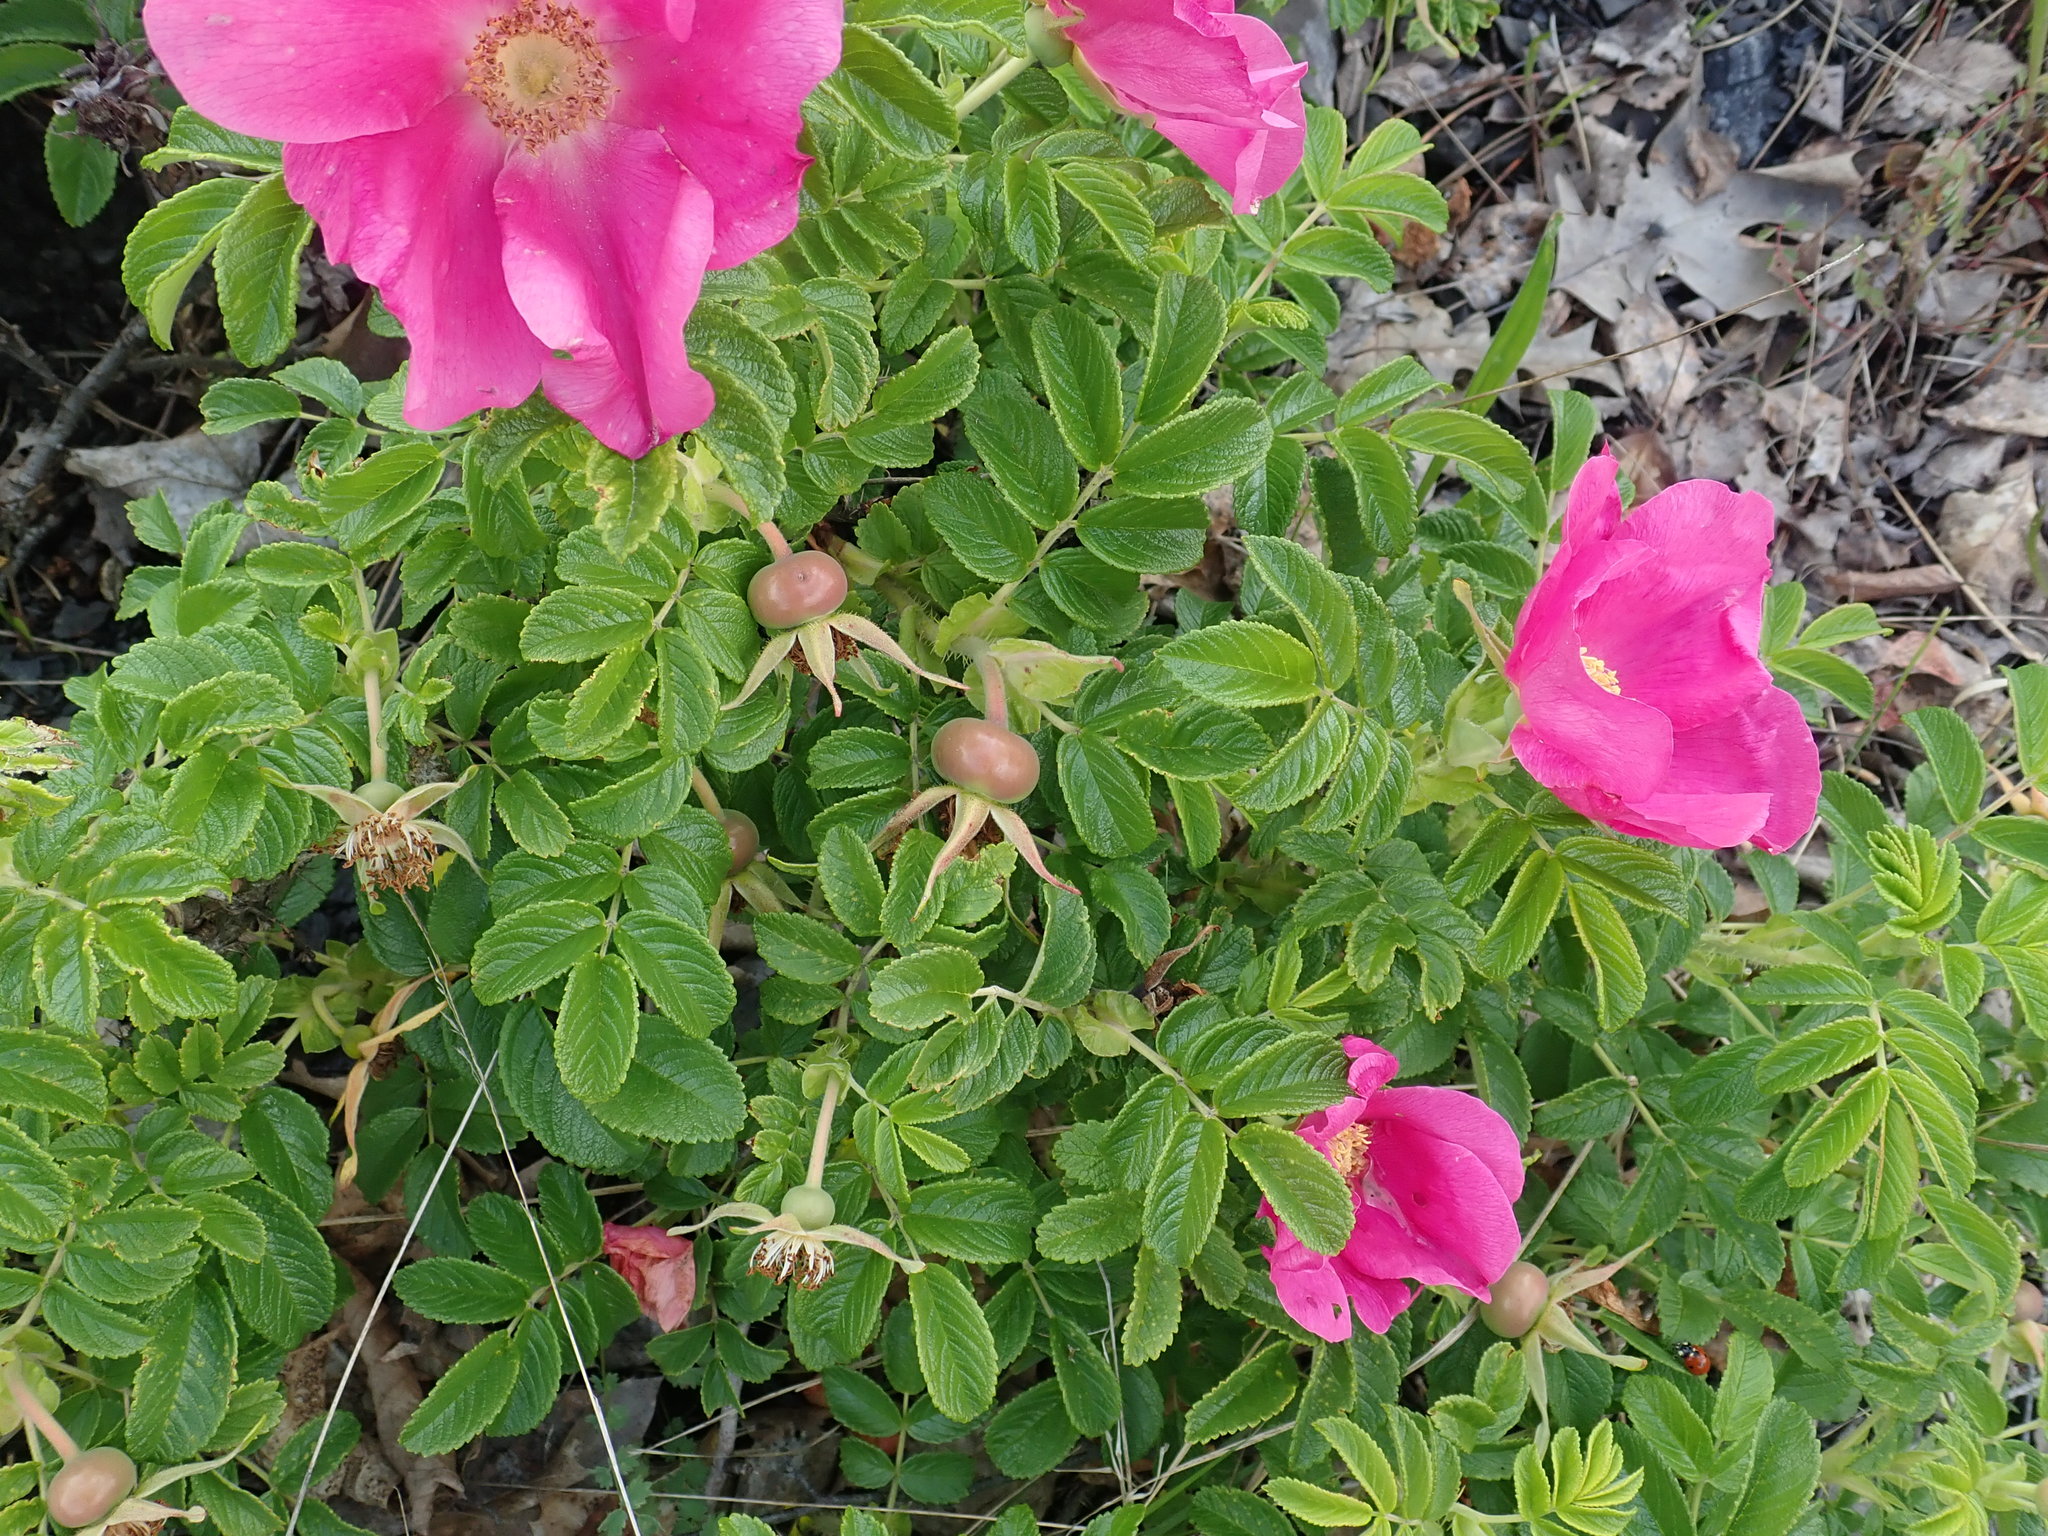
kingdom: Plantae
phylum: Tracheophyta
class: Magnoliopsida
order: Rosales
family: Rosaceae
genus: Rosa
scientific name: Rosa rugosa
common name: Japanese rose
